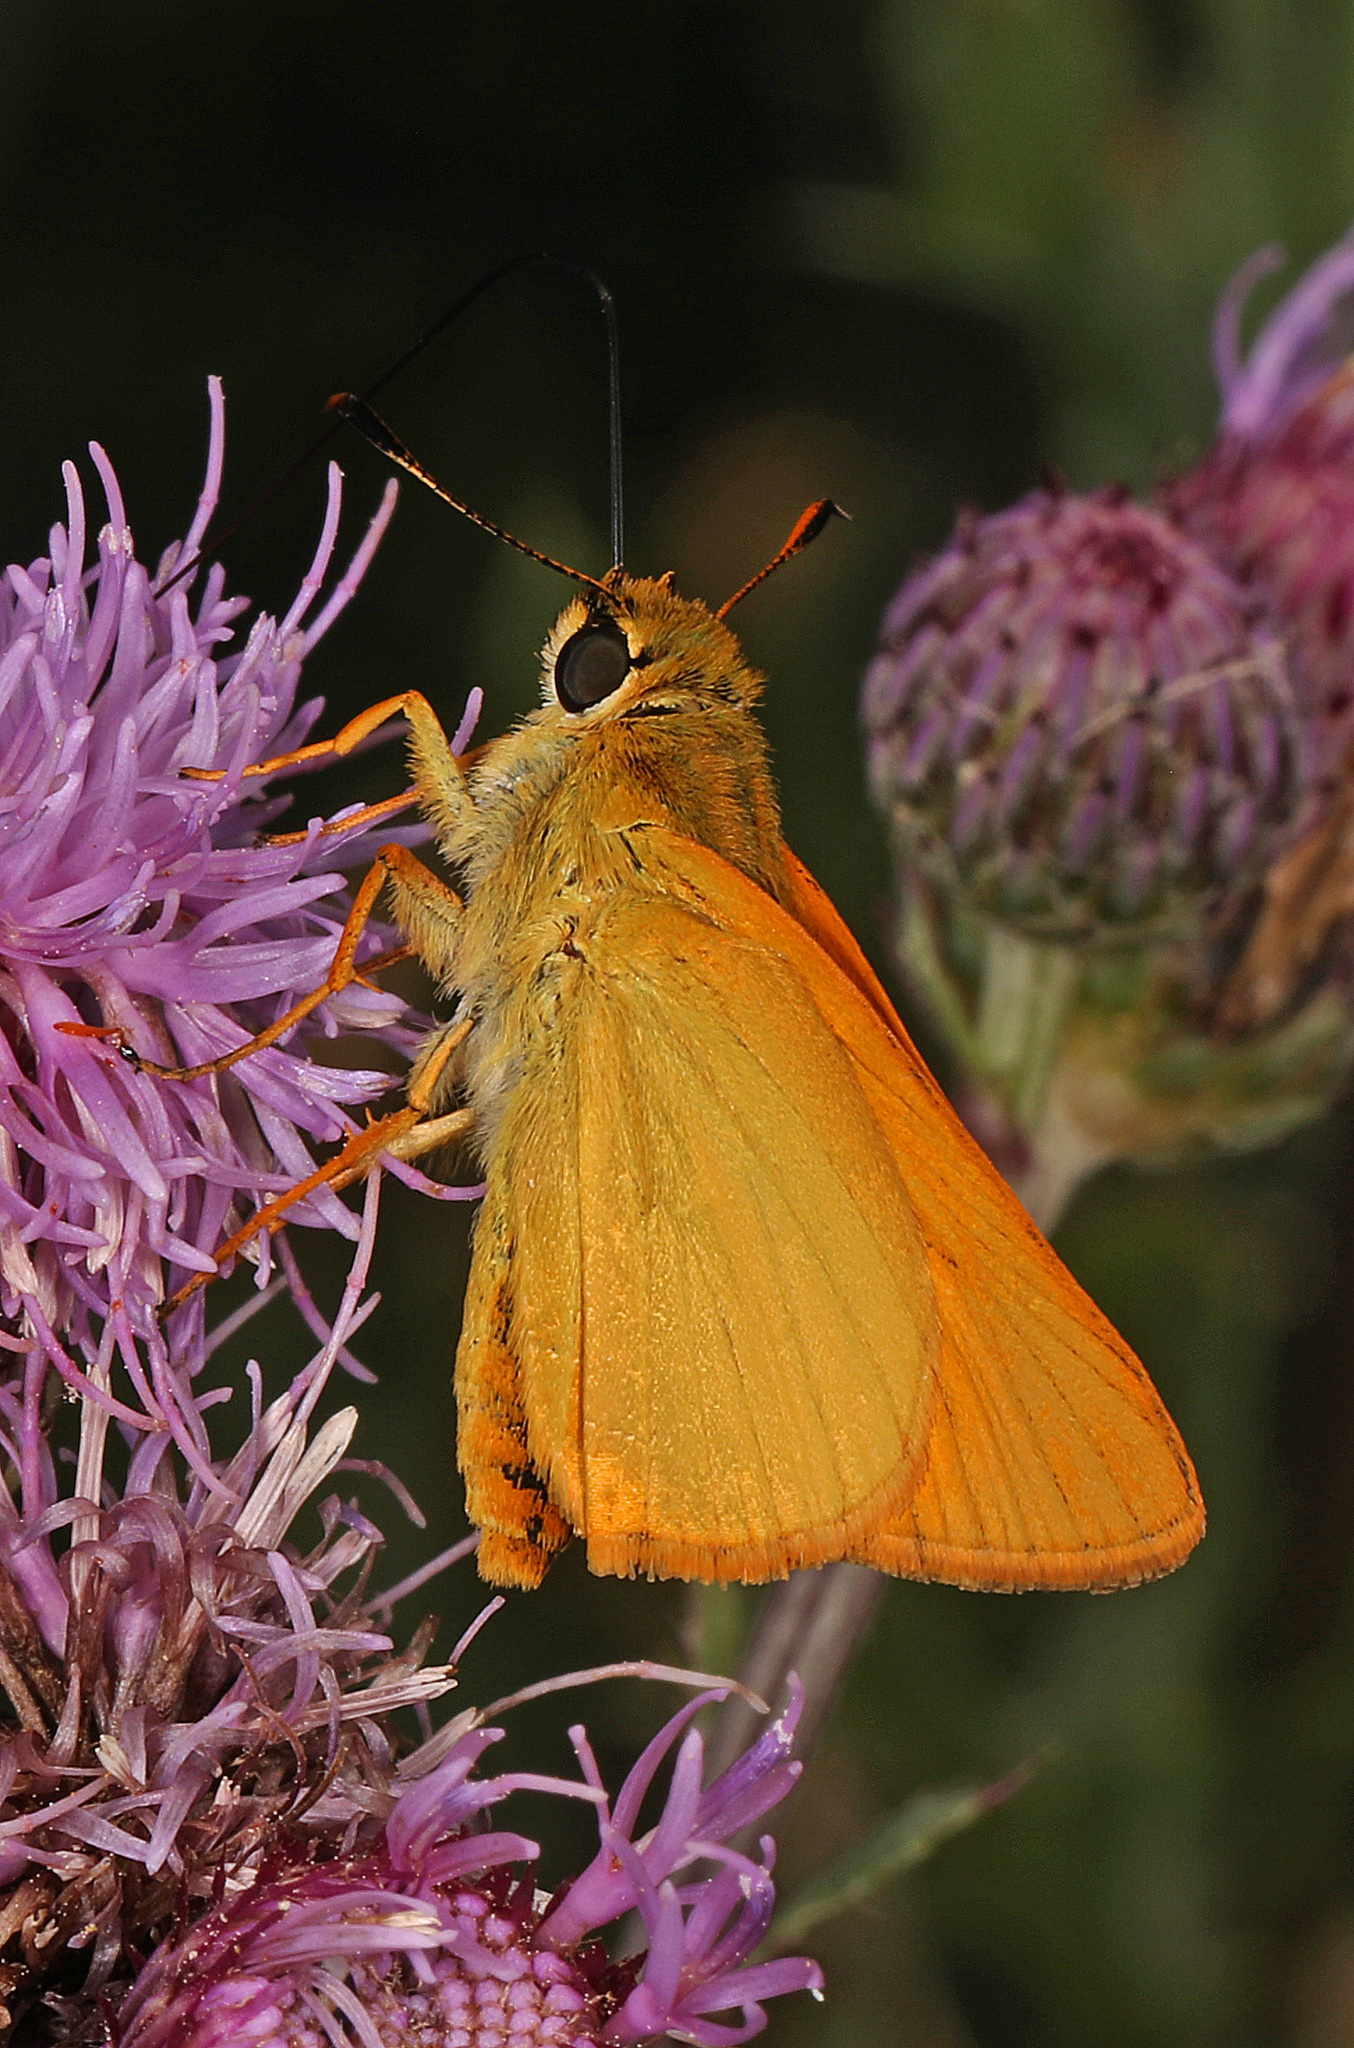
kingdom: Animalia
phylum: Arthropoda
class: Insecta
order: Lepidoptera
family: Hesperiidae
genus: Atrytone
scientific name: Atrytone delaware
